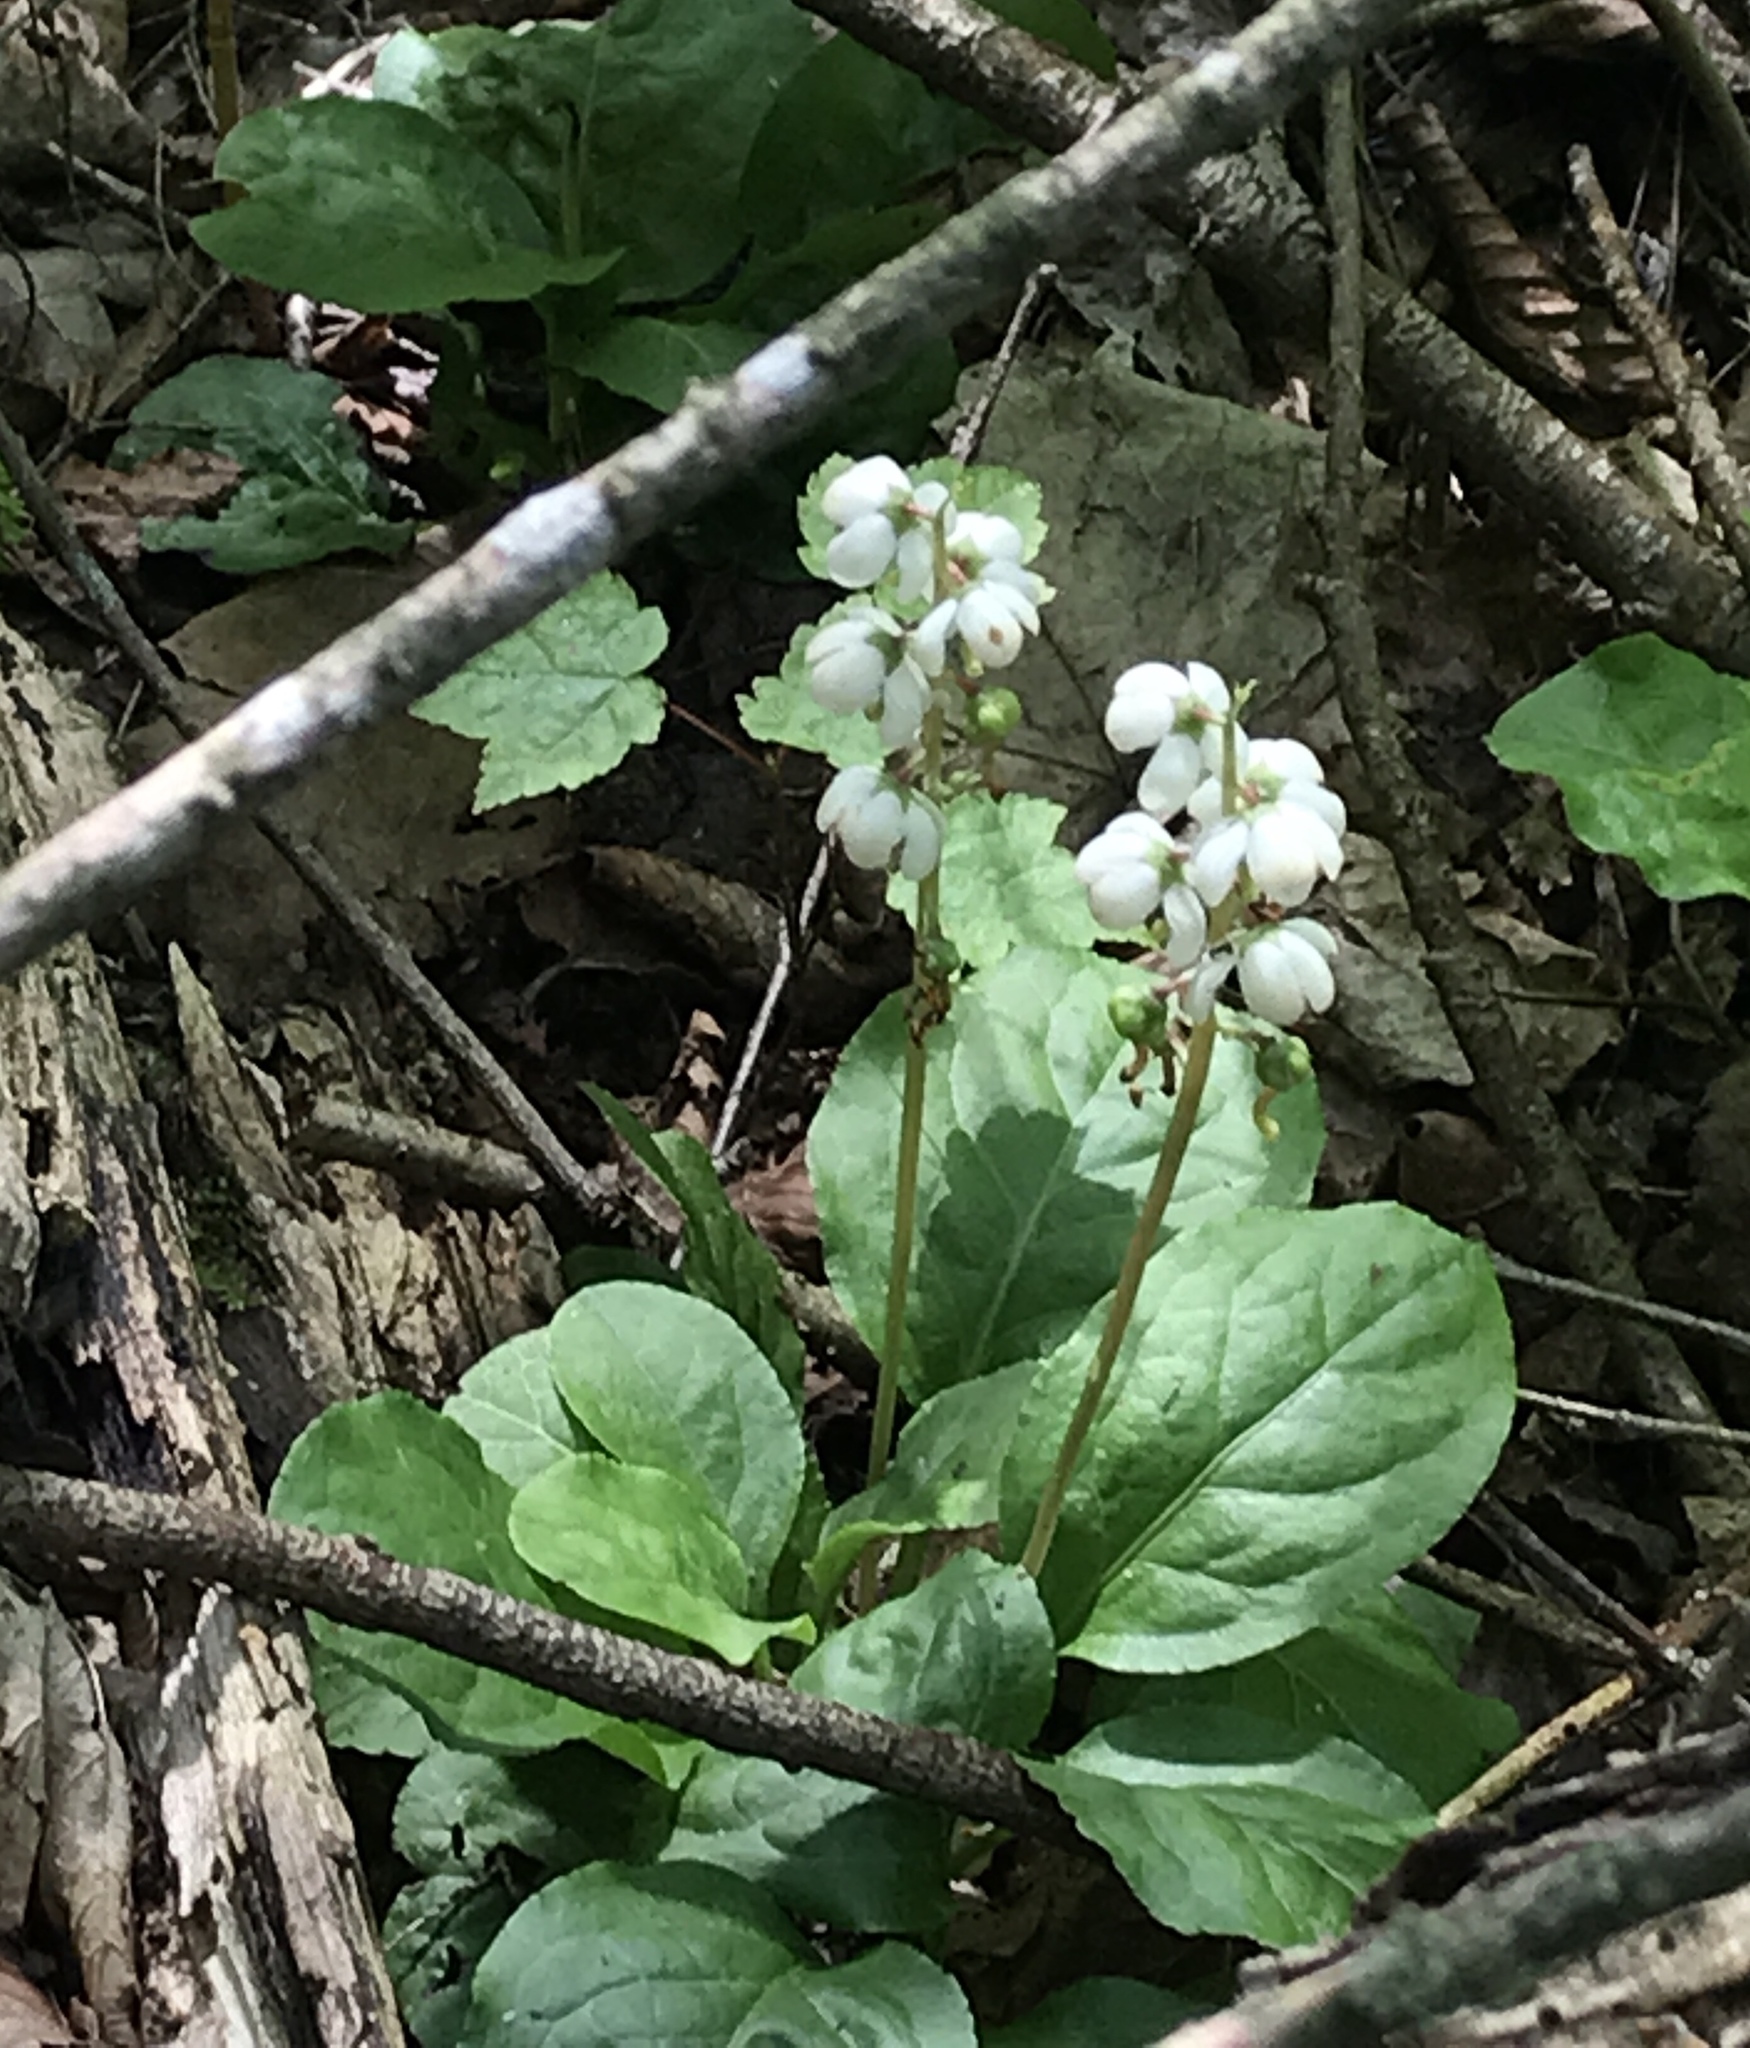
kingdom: Plantae
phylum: Tracheophyta
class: Magnoliopsida
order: Ericales
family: Ericaceae
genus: Pyrola
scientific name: Pyrola elliptica
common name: Shinleaf
